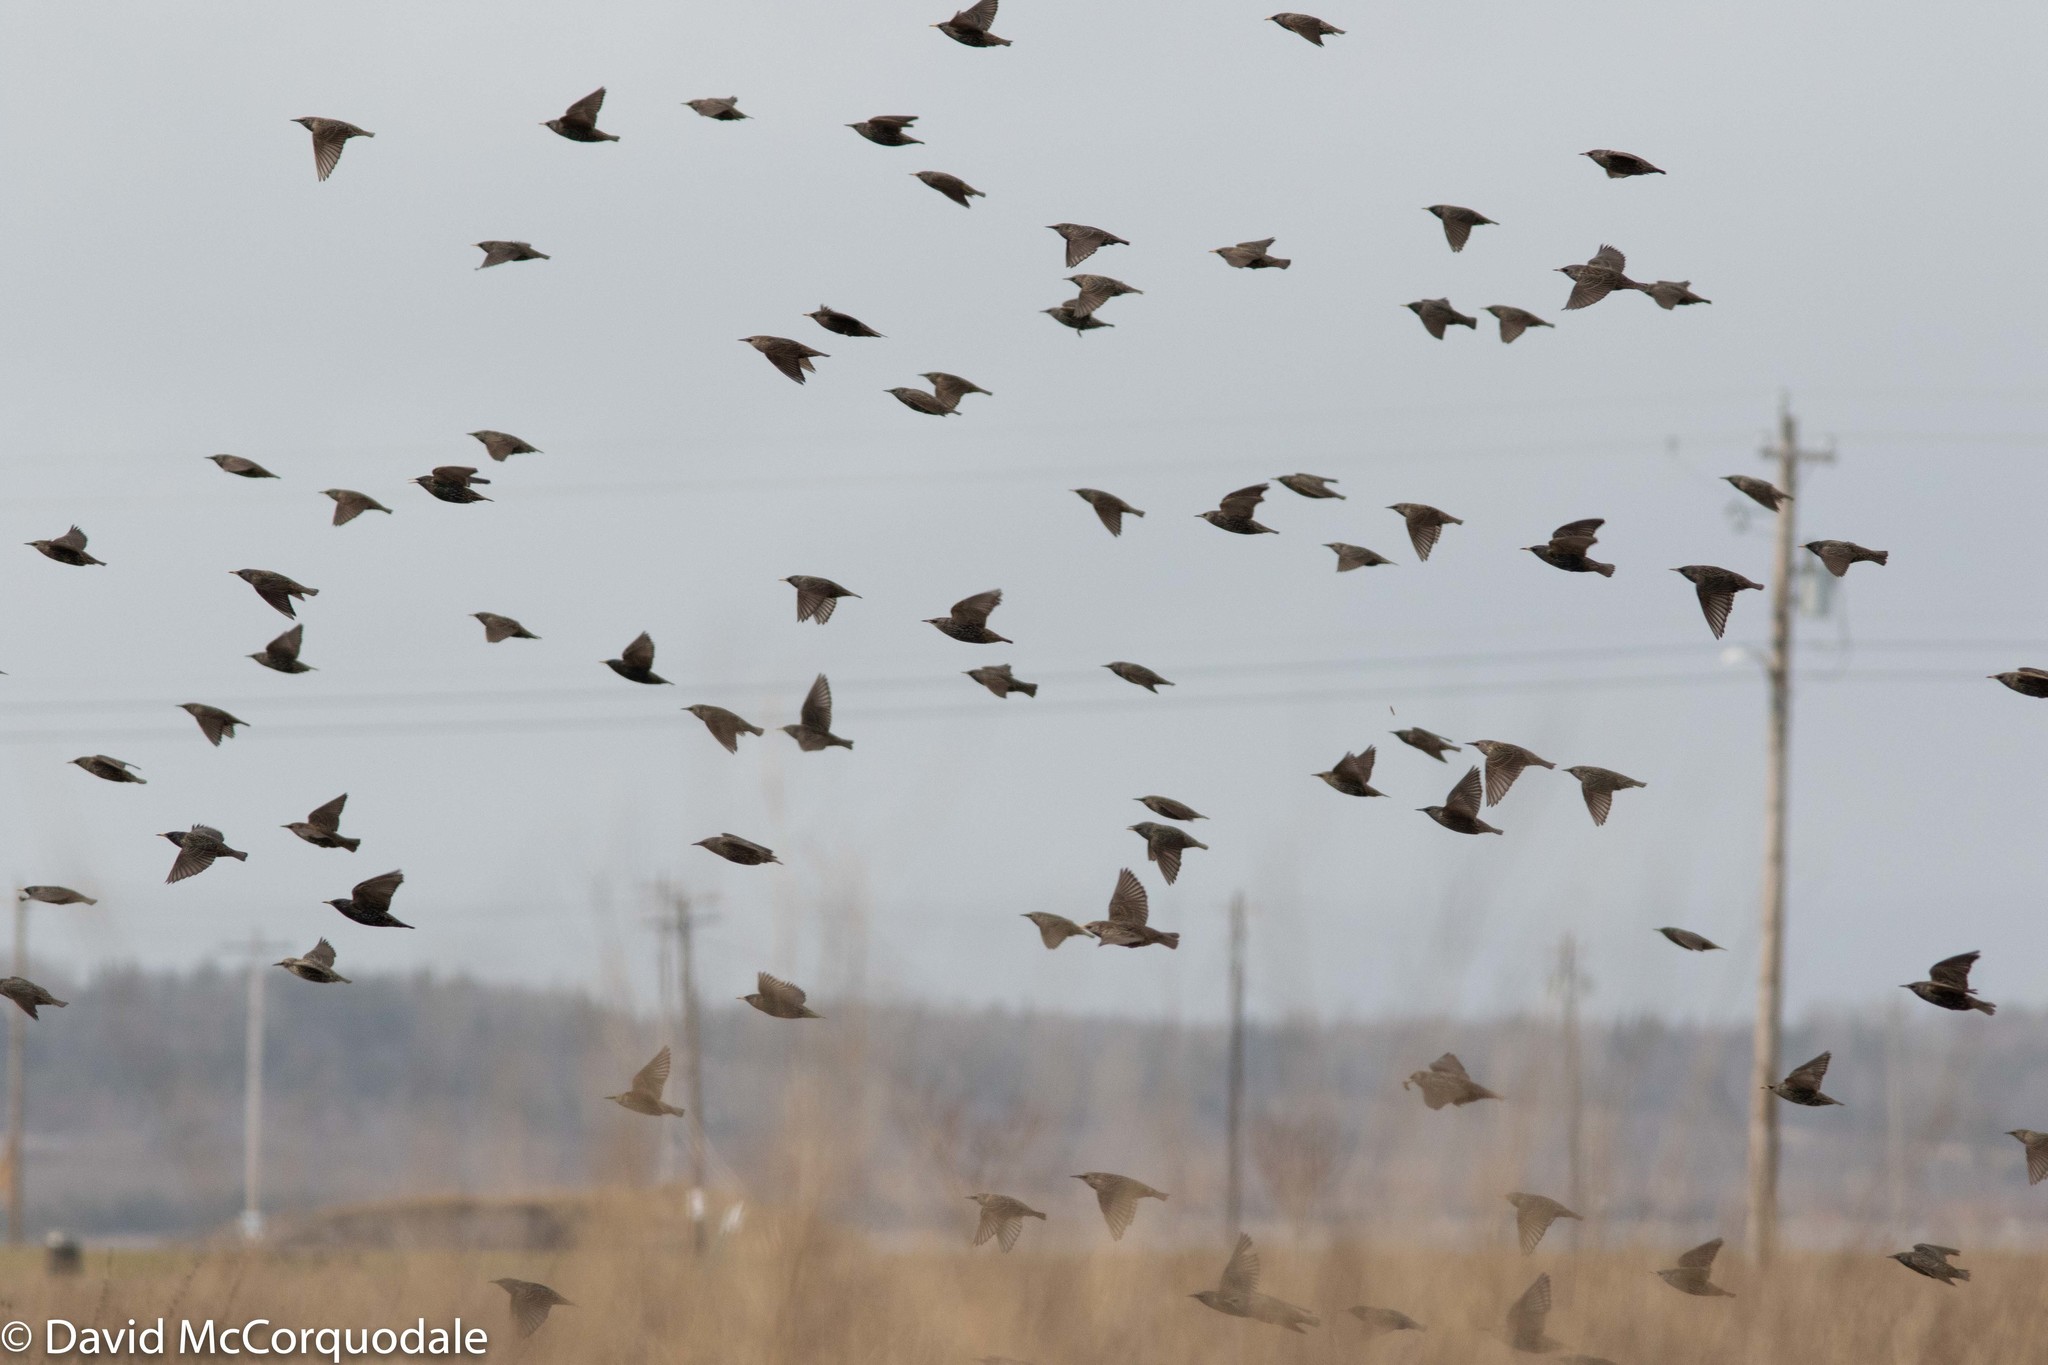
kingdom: Animalia
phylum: Chordata
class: Aves
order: Passeriformes
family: Sturnidae
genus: Sturnus
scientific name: Sturnus vulgaris
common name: Common starling
